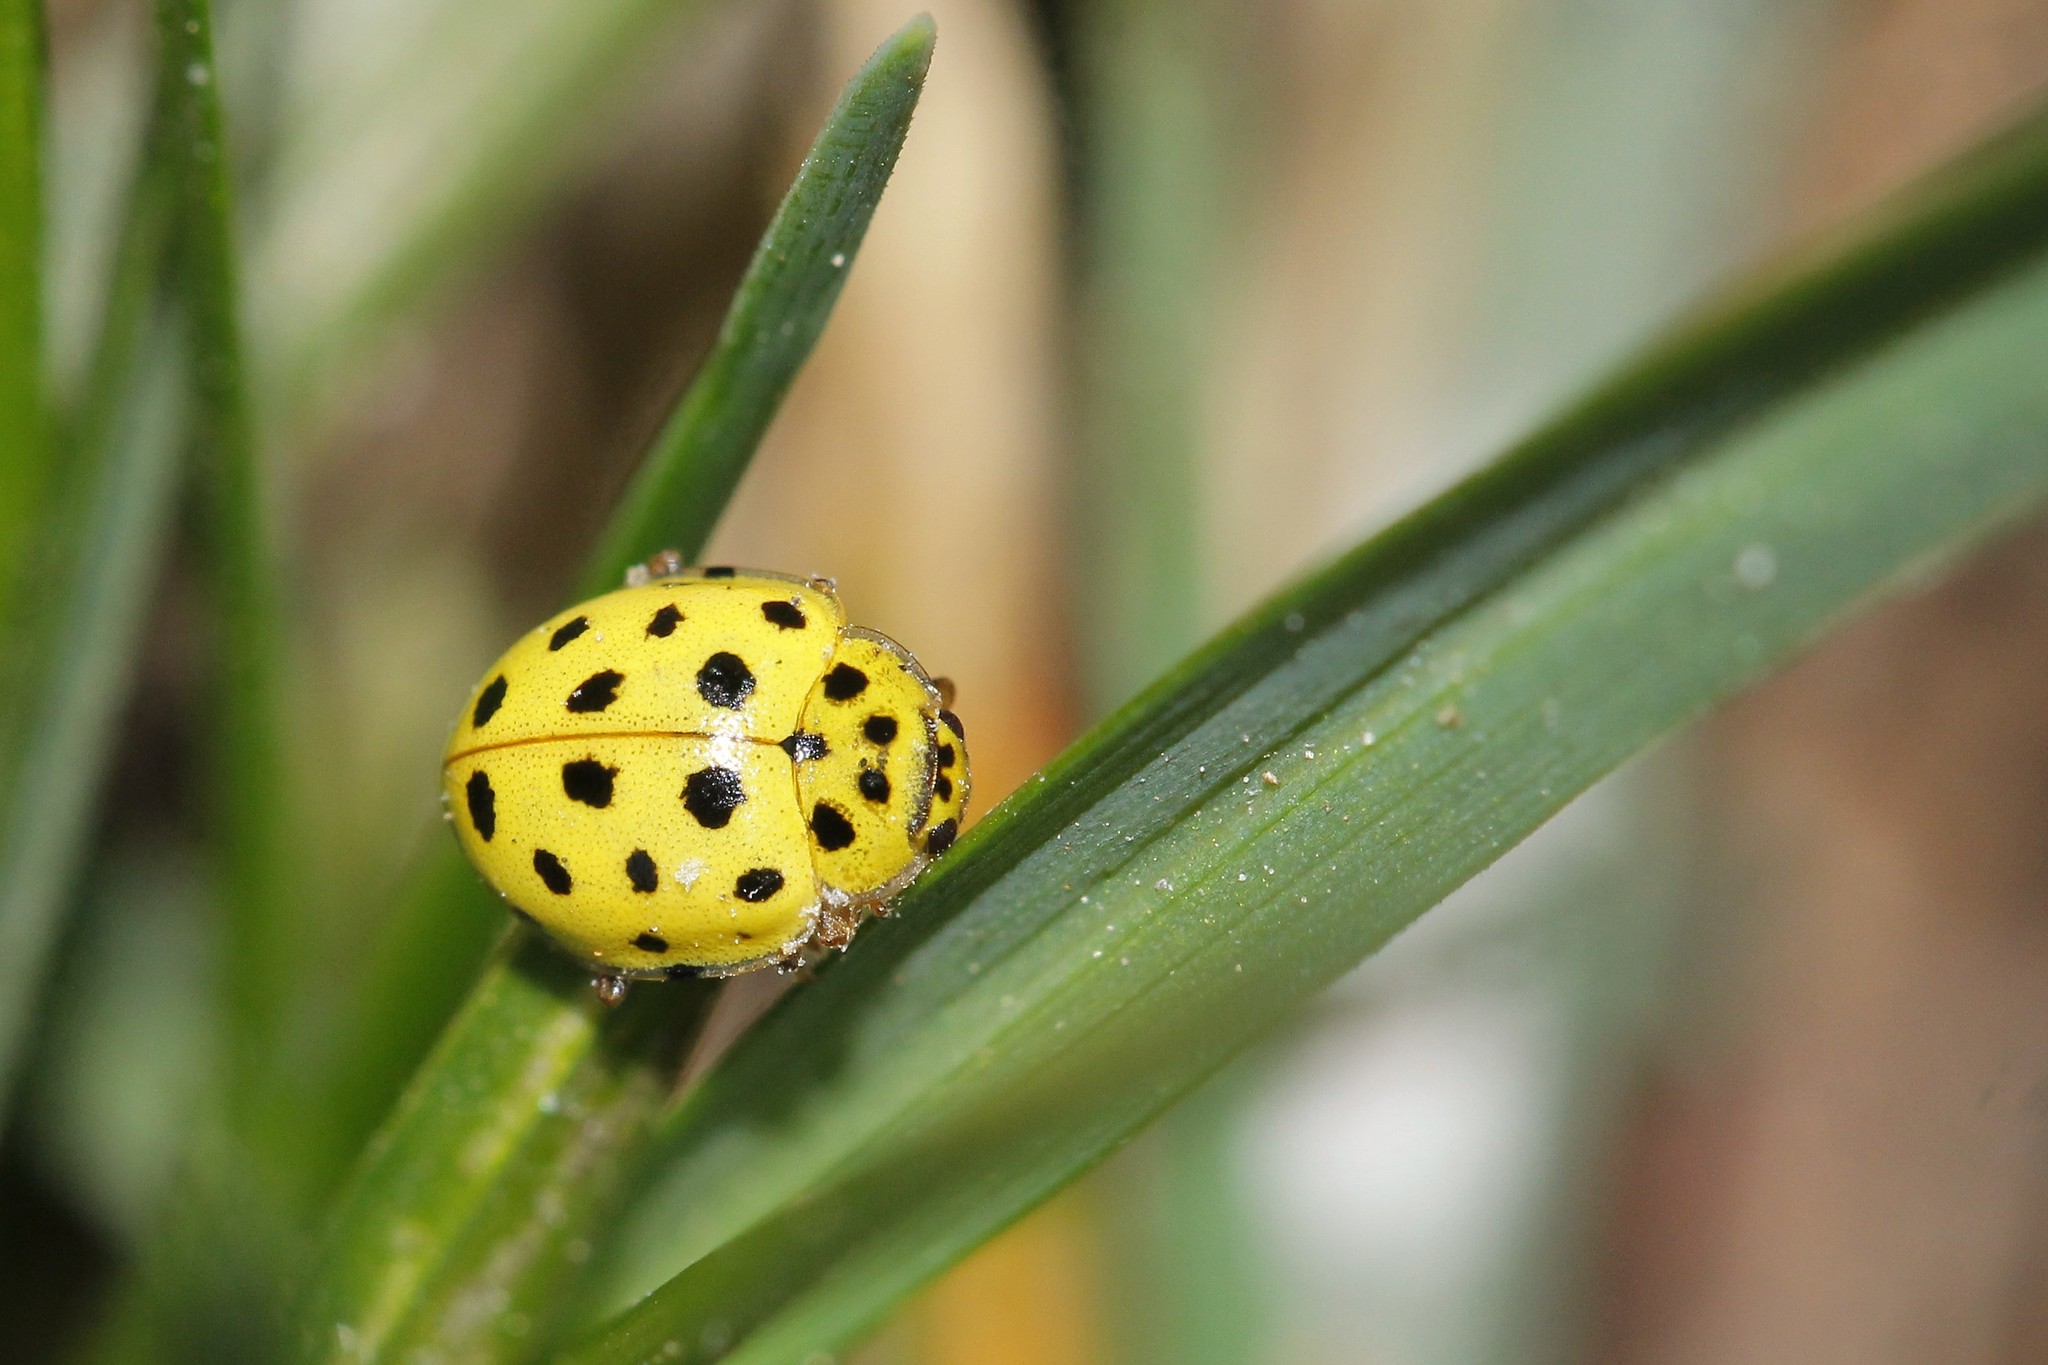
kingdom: Animalia
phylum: Arthropoda
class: Insecta
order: Coleoptera
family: Coccinellidae
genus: Psyllobora
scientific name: Psyllobora vigintiduopunctata
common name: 22-spot ladybird
